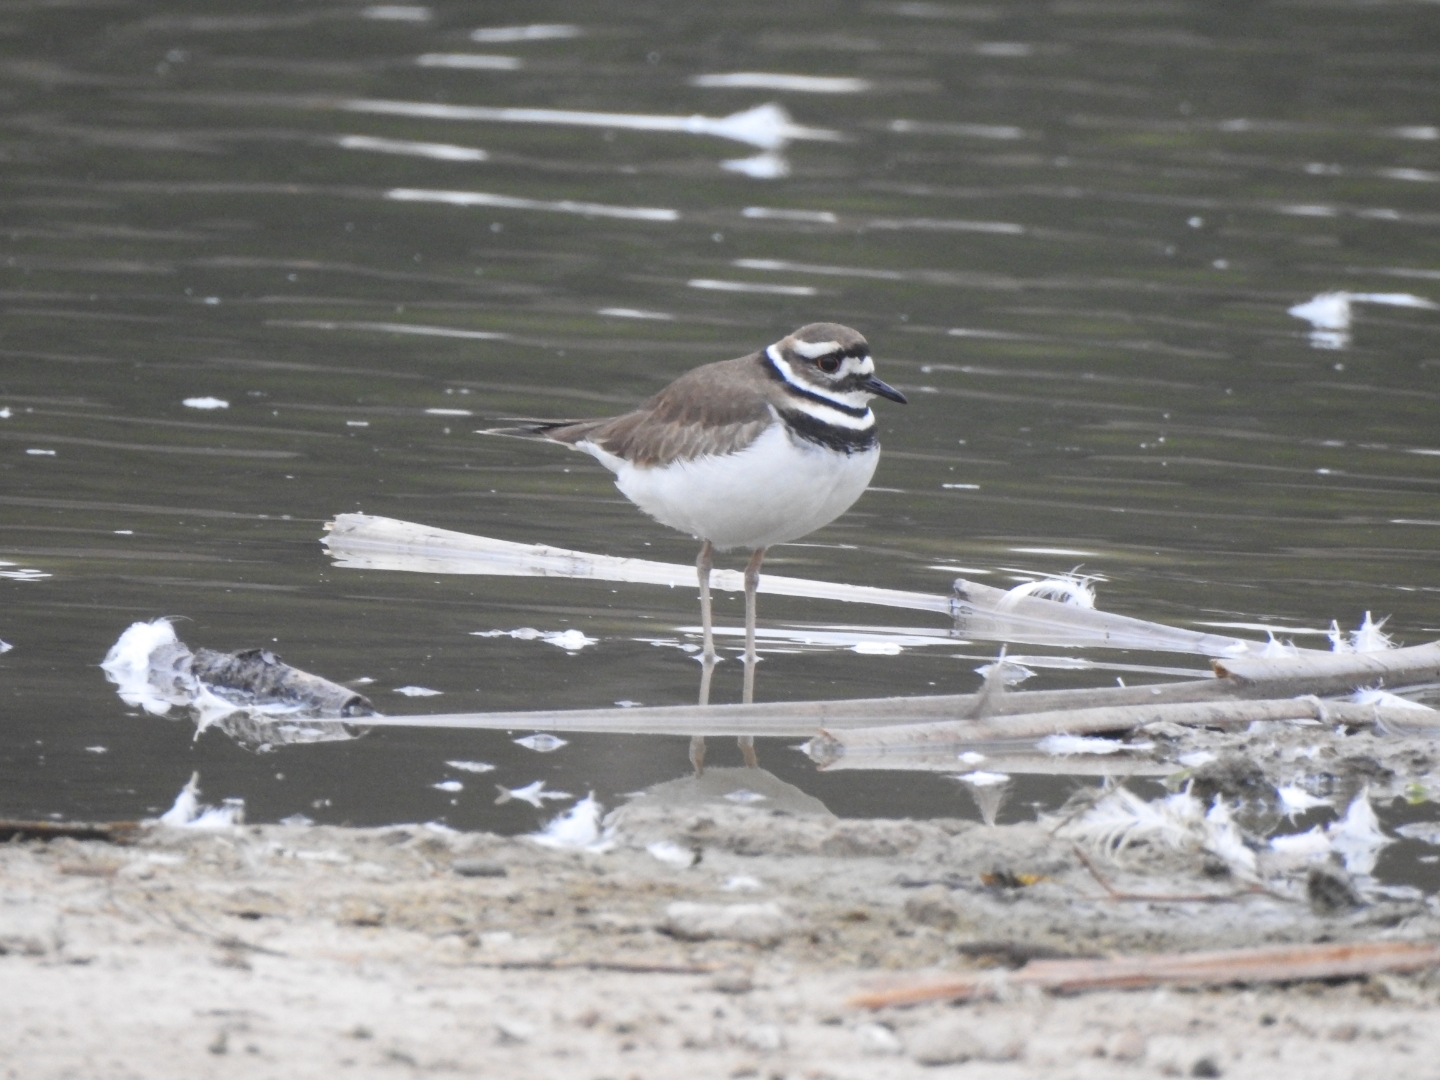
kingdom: Animalia
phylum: Chordata
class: Aves
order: Charadriiformes
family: Charadriidae
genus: Charadrius
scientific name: Charadrius vociferus
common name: Killdeer
